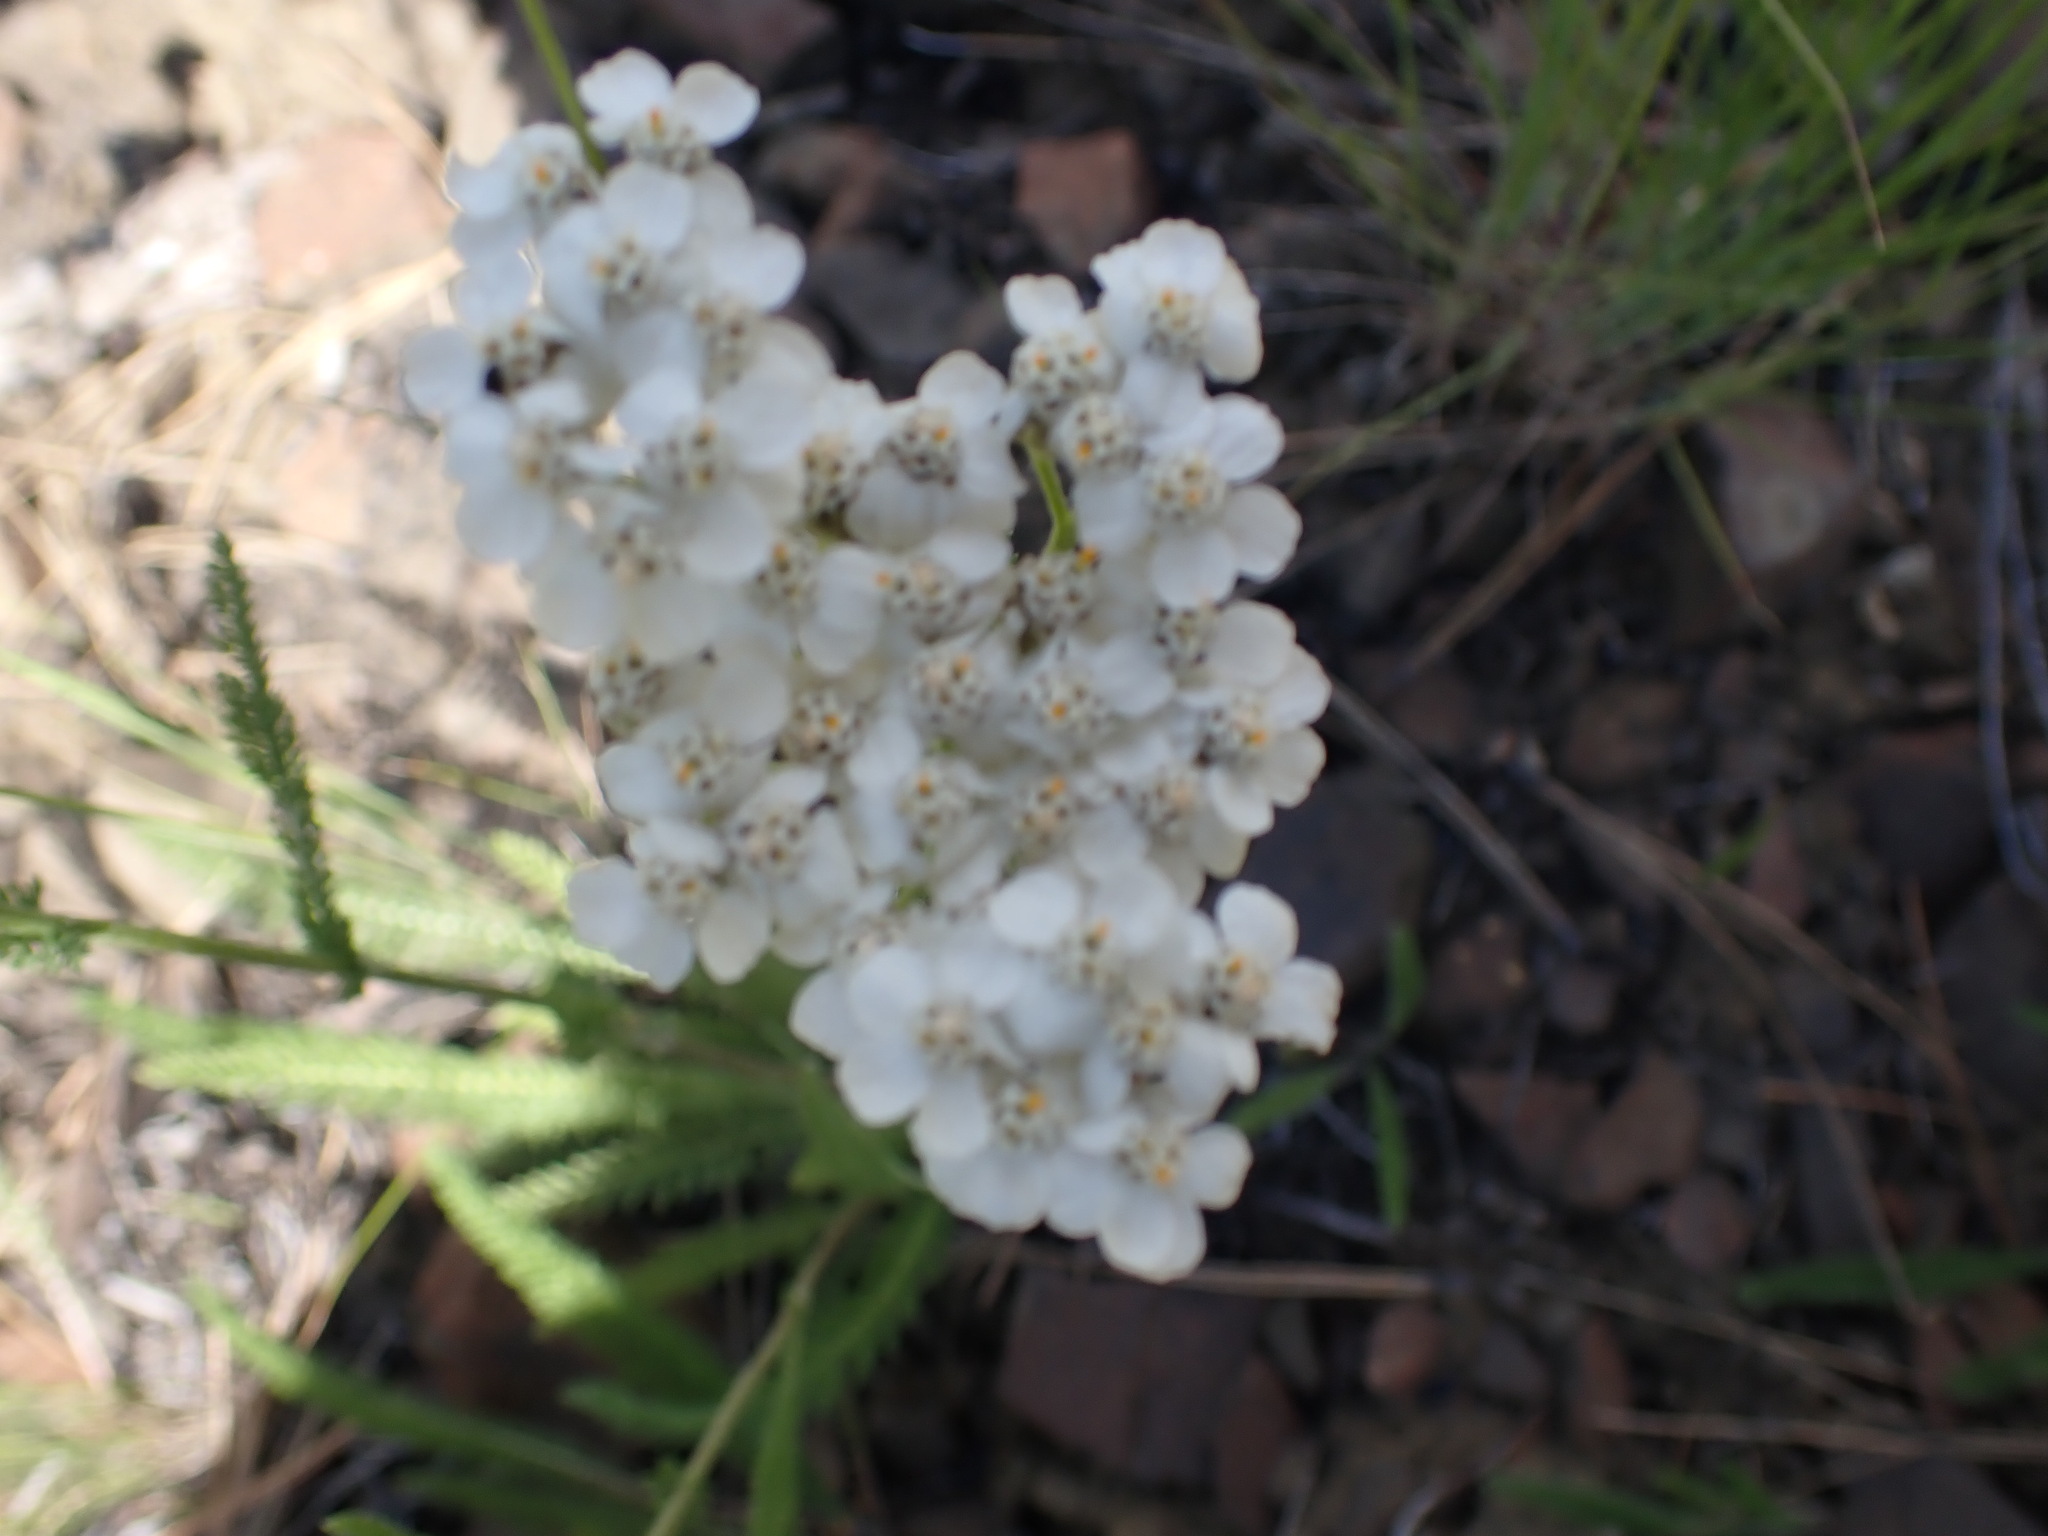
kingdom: Plantae
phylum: Tracheophyta
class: Magnoliopsida
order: Asterales
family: Asteraceae
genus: Achillea
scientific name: Achillea millefolium
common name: Yarrow
